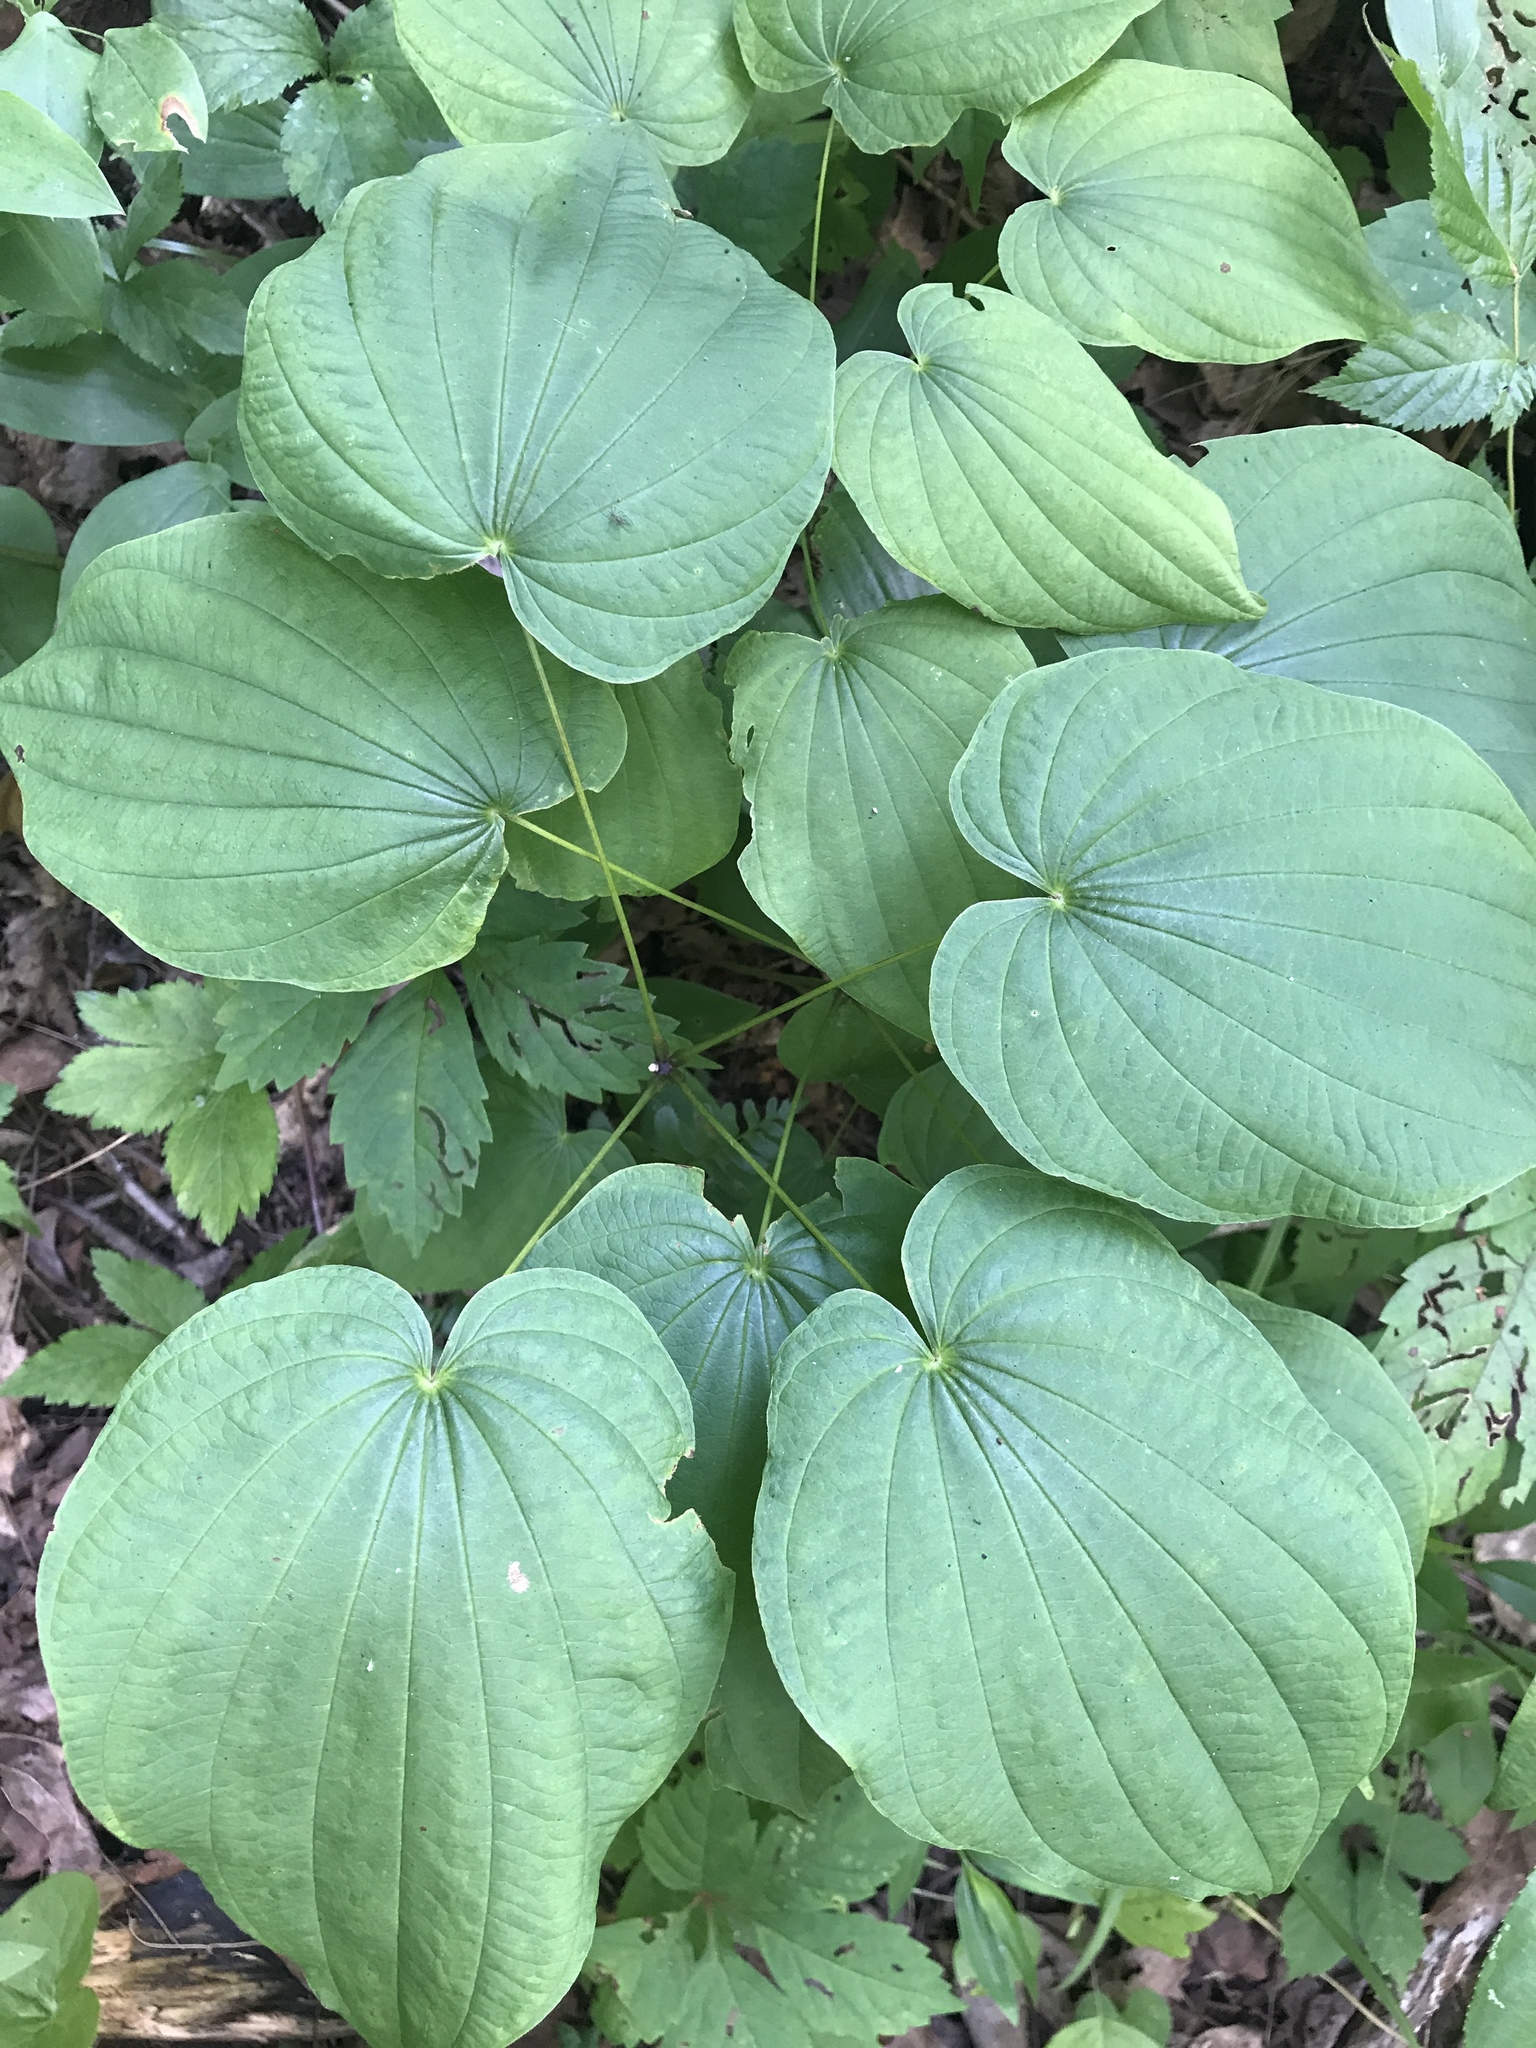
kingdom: Plantae
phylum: Tracheophyta
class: Liliopsida
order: Dioscoreales
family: Dioscoreaceae
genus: Dioscorea
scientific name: Dioscorea villosa
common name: Wild yam
